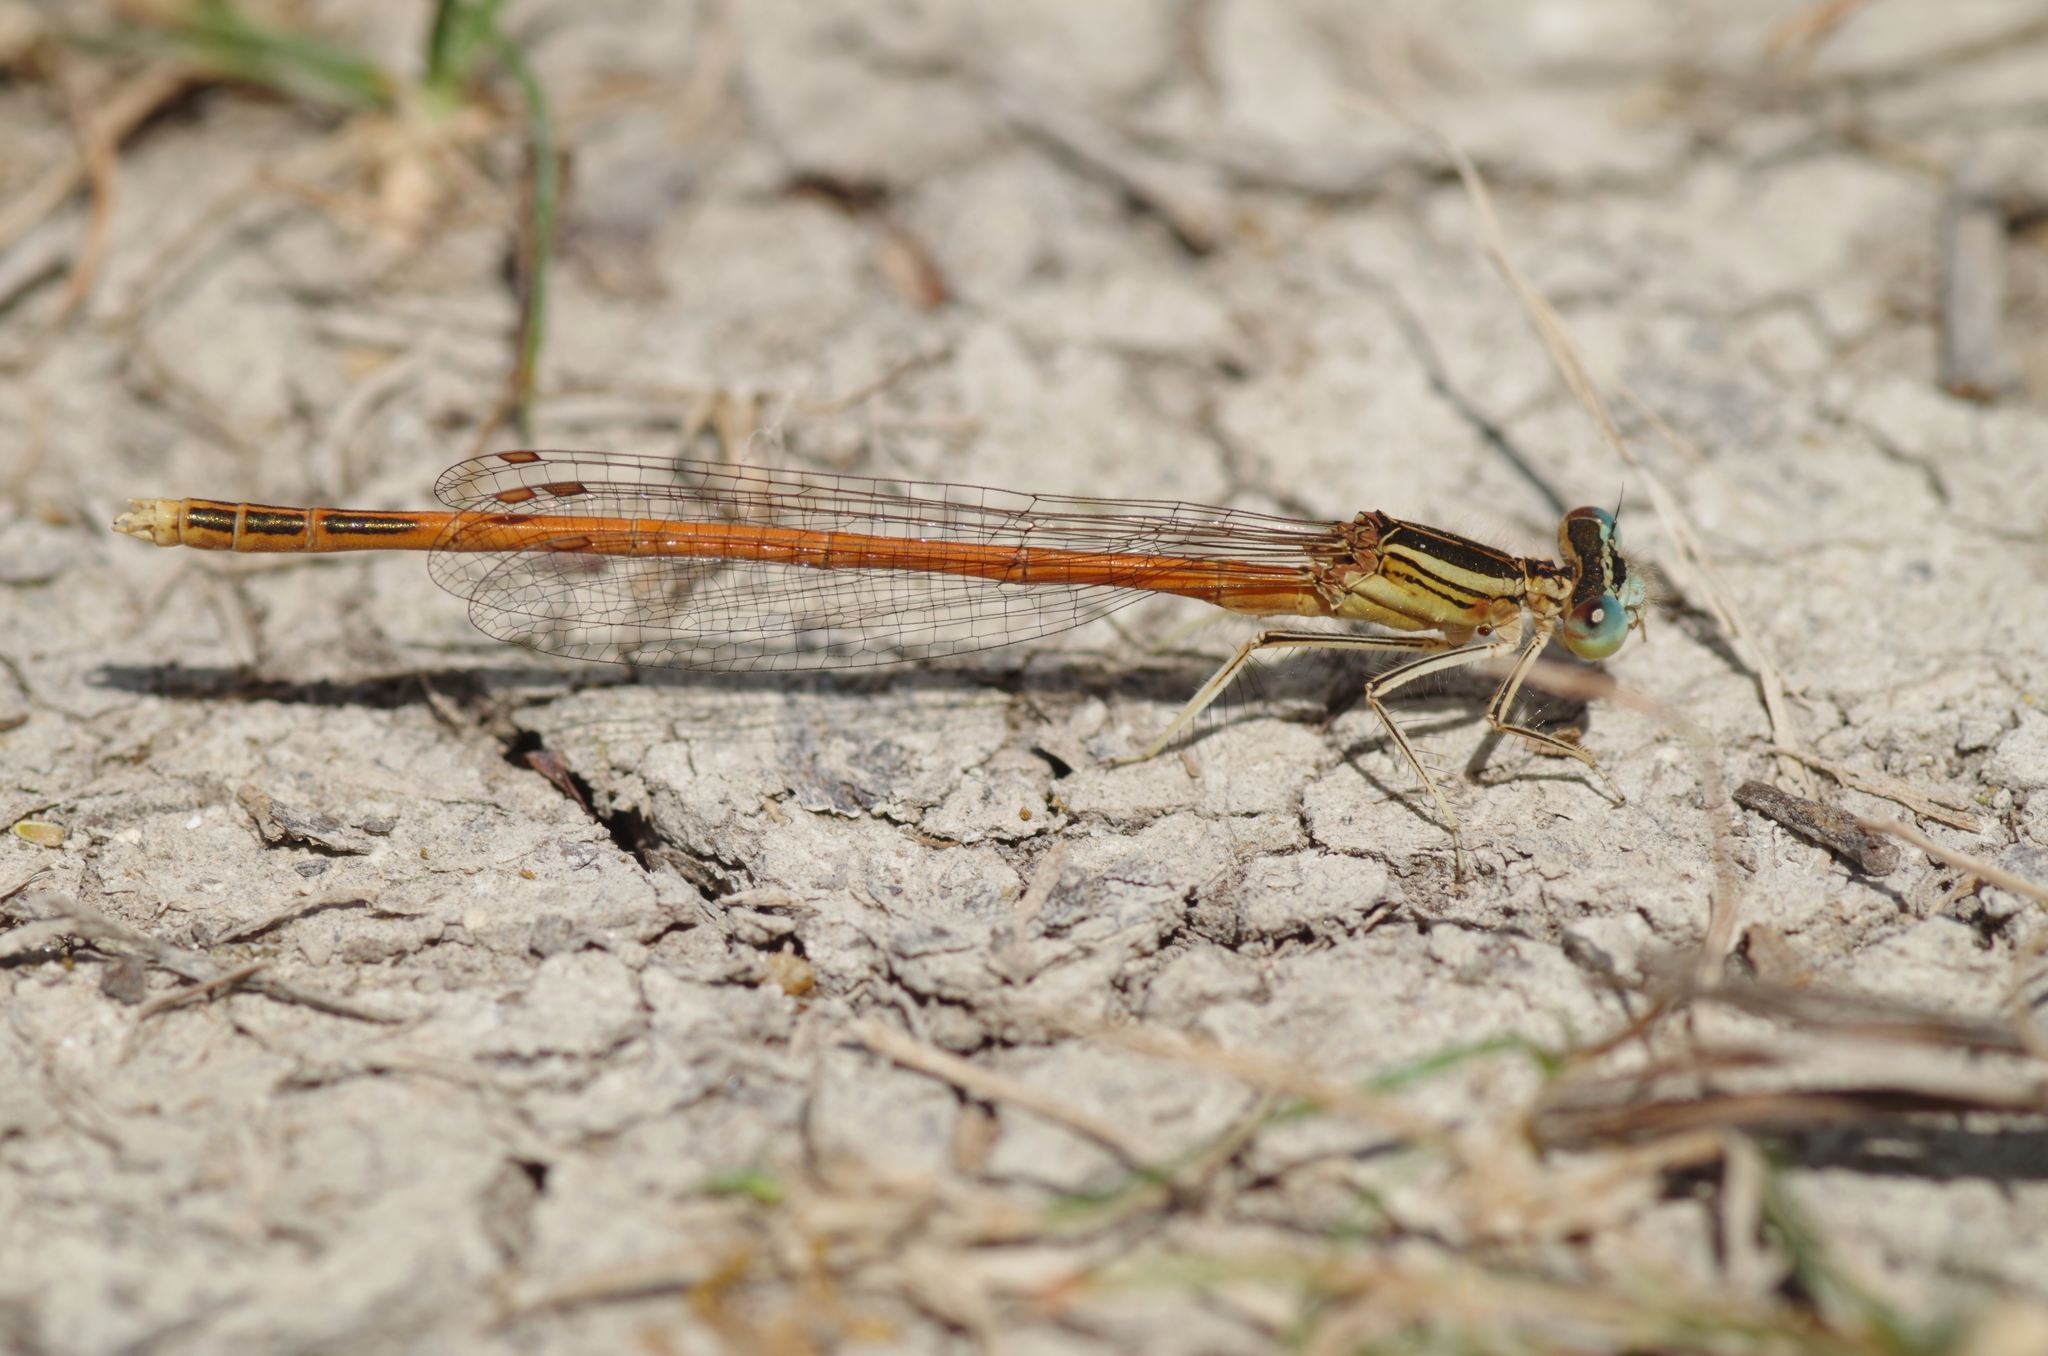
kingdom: Animalia
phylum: Arthropoda
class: Insecta
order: Odonata
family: Platycnemididae
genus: Platycnemis
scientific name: Platycnemis acutipennis
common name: Orange featherleg
